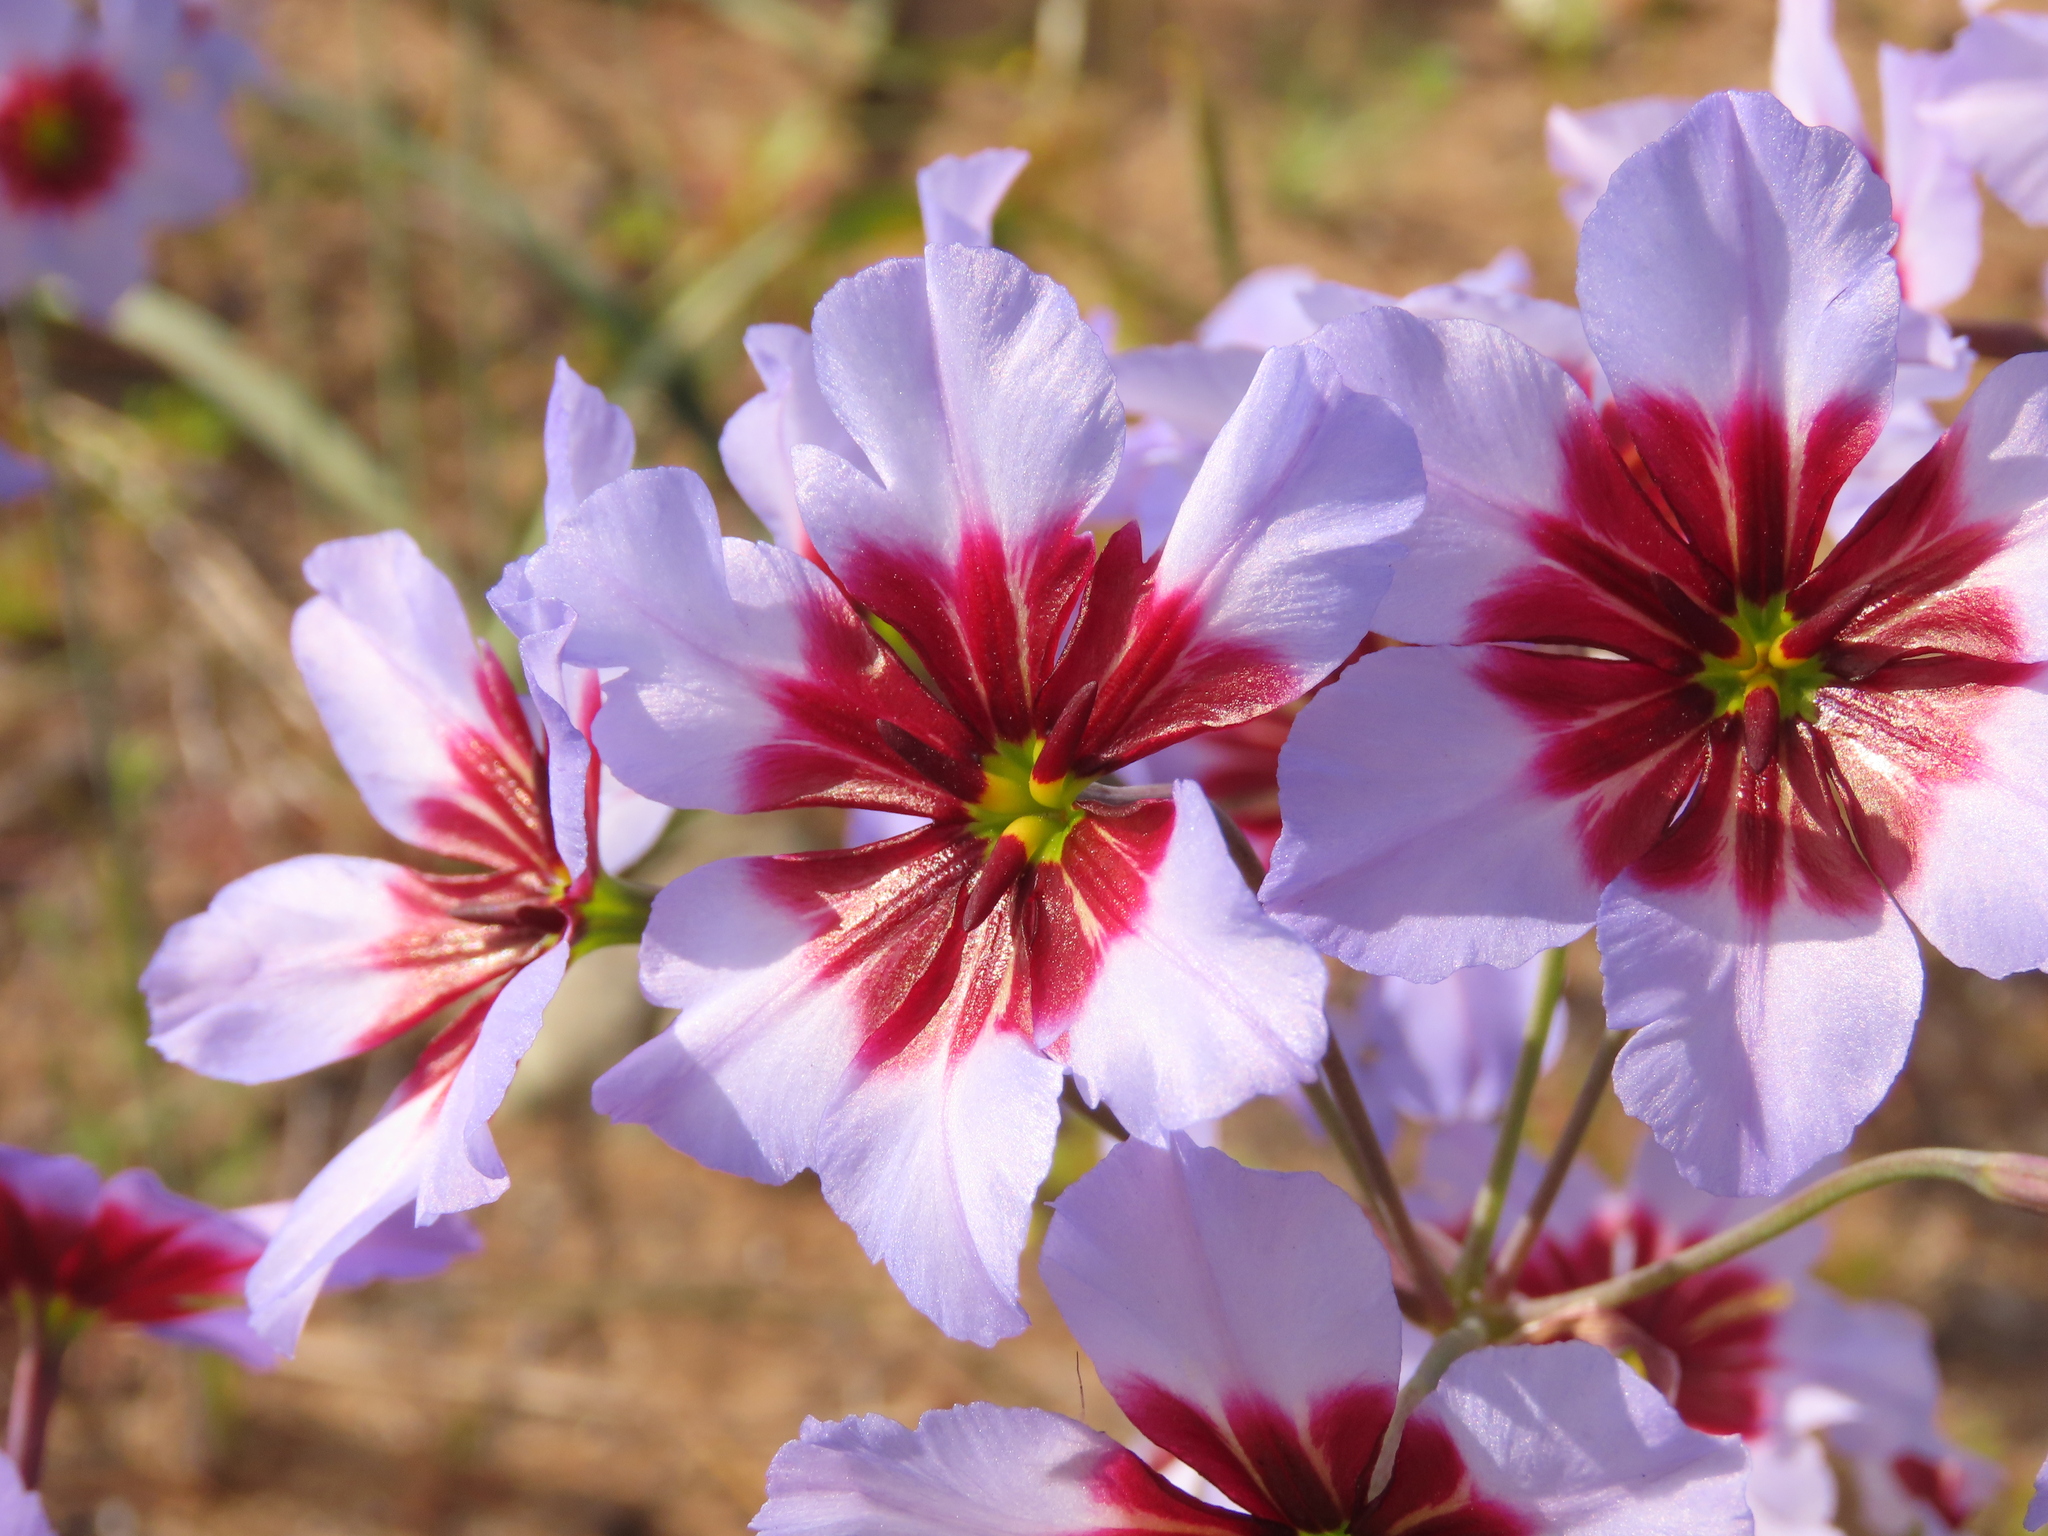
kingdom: Plantae
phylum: Tracheophyta
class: Liliopsida
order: Asparagales
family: Amaryllidaceae
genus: Leucocoryne
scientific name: Leucocoryne purpurea
